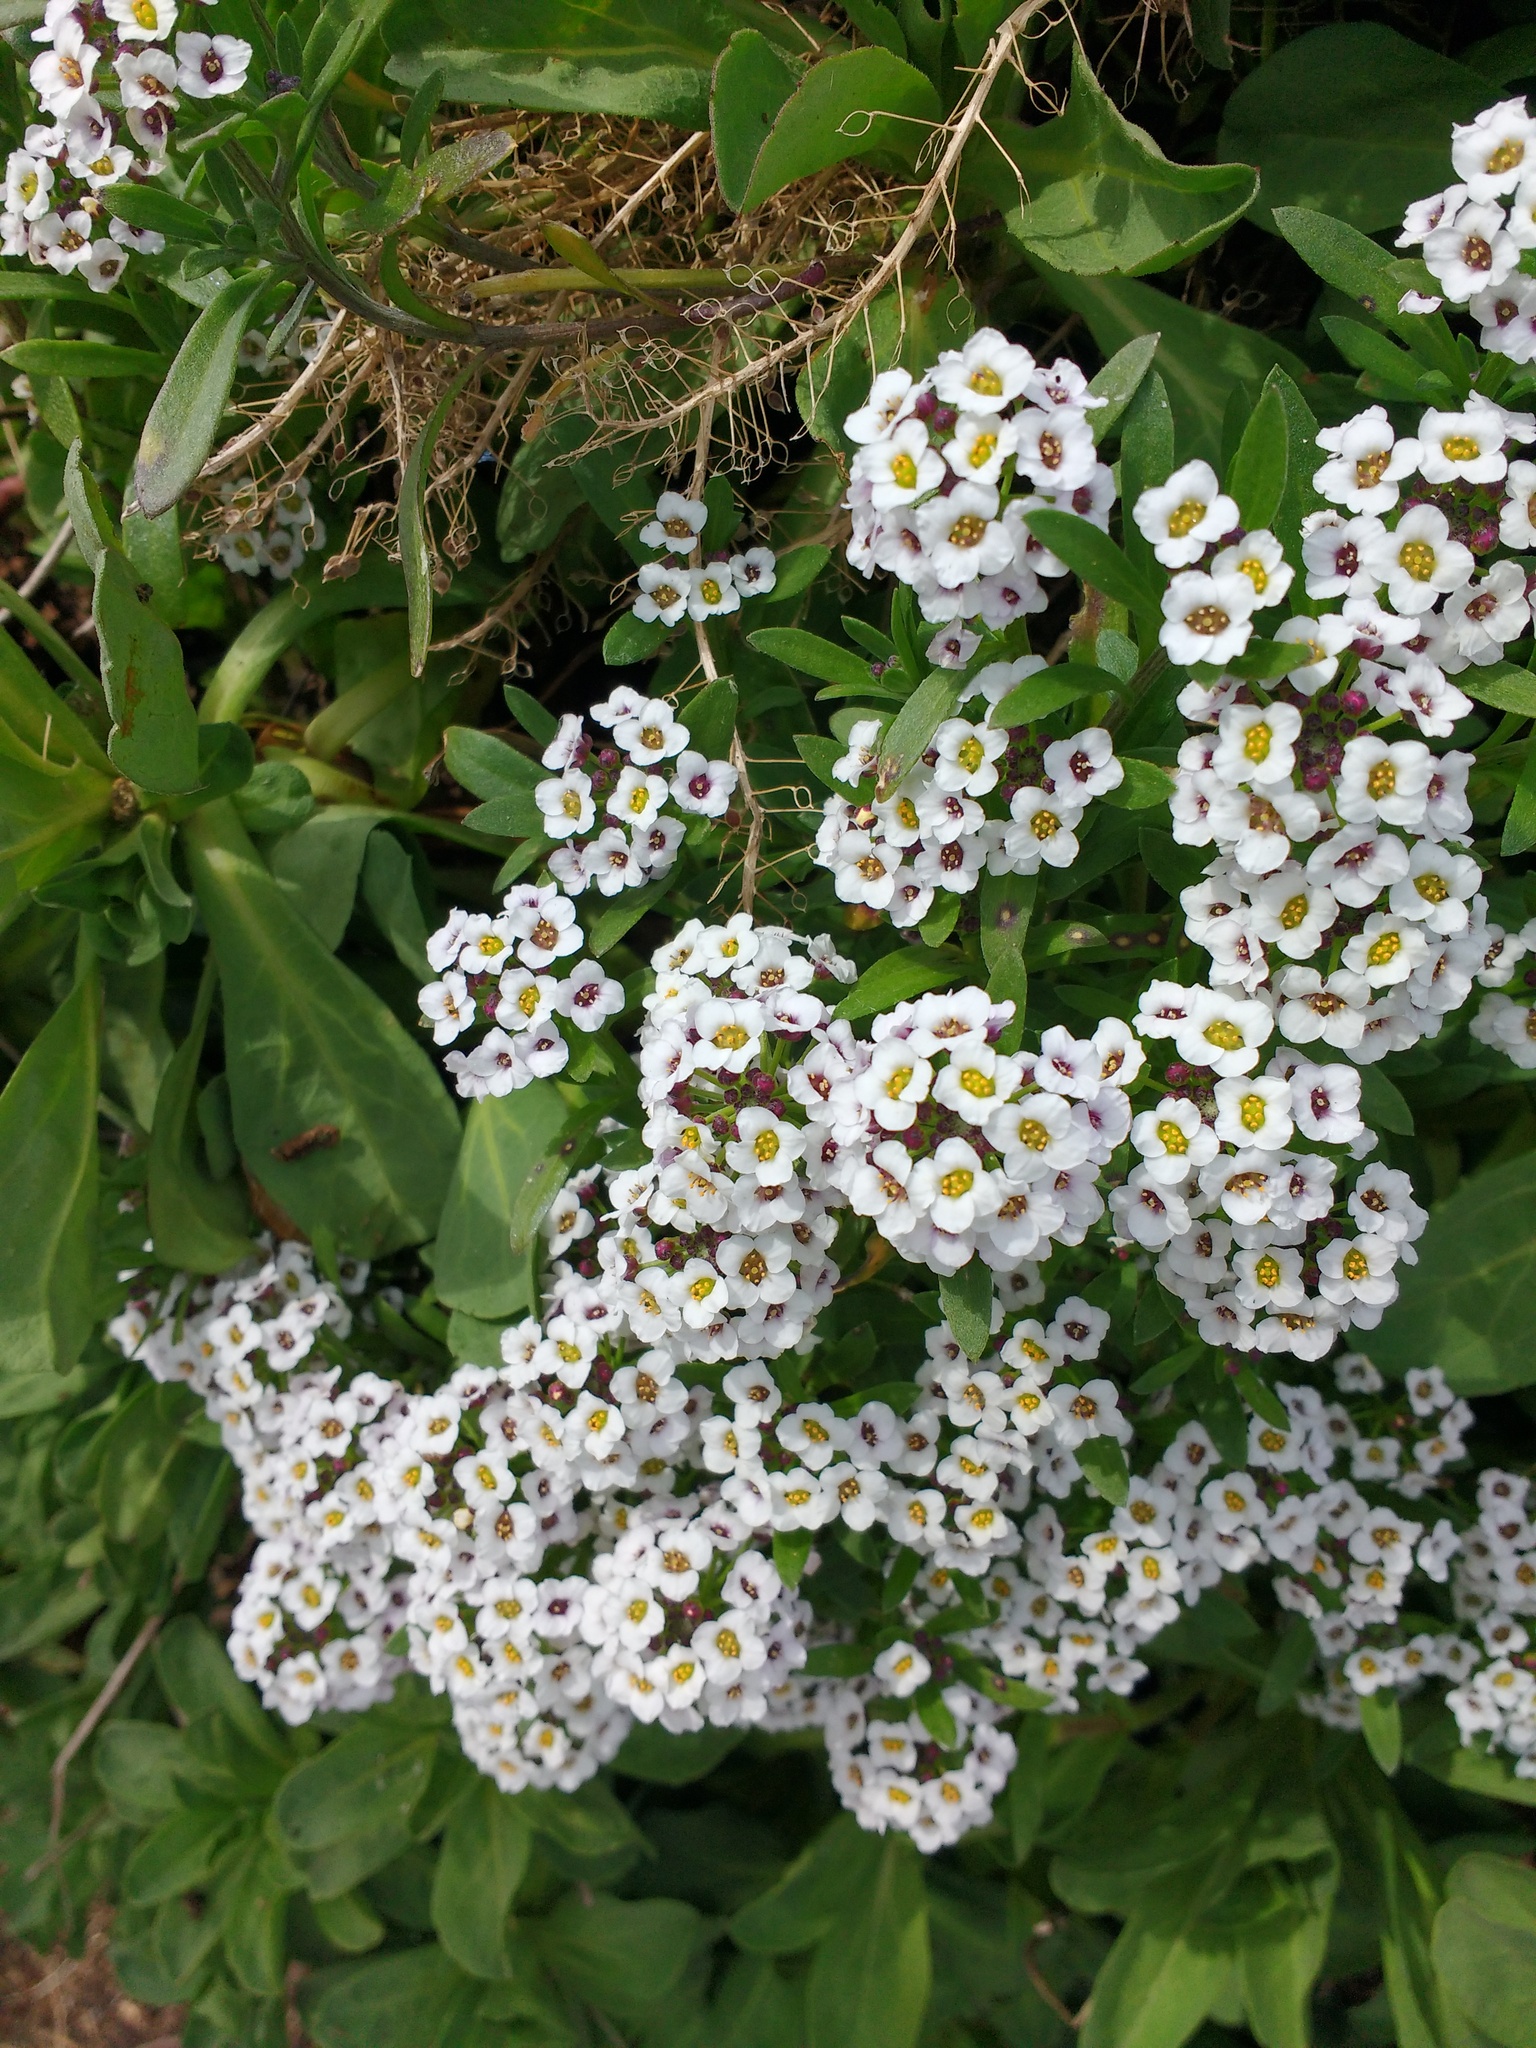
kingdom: Plantae
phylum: Tracheophyta
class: Magnoliopsida
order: Brassicales
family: Brassicaceae
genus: Lobularia
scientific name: Lobularia maritima
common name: Sweet alison
